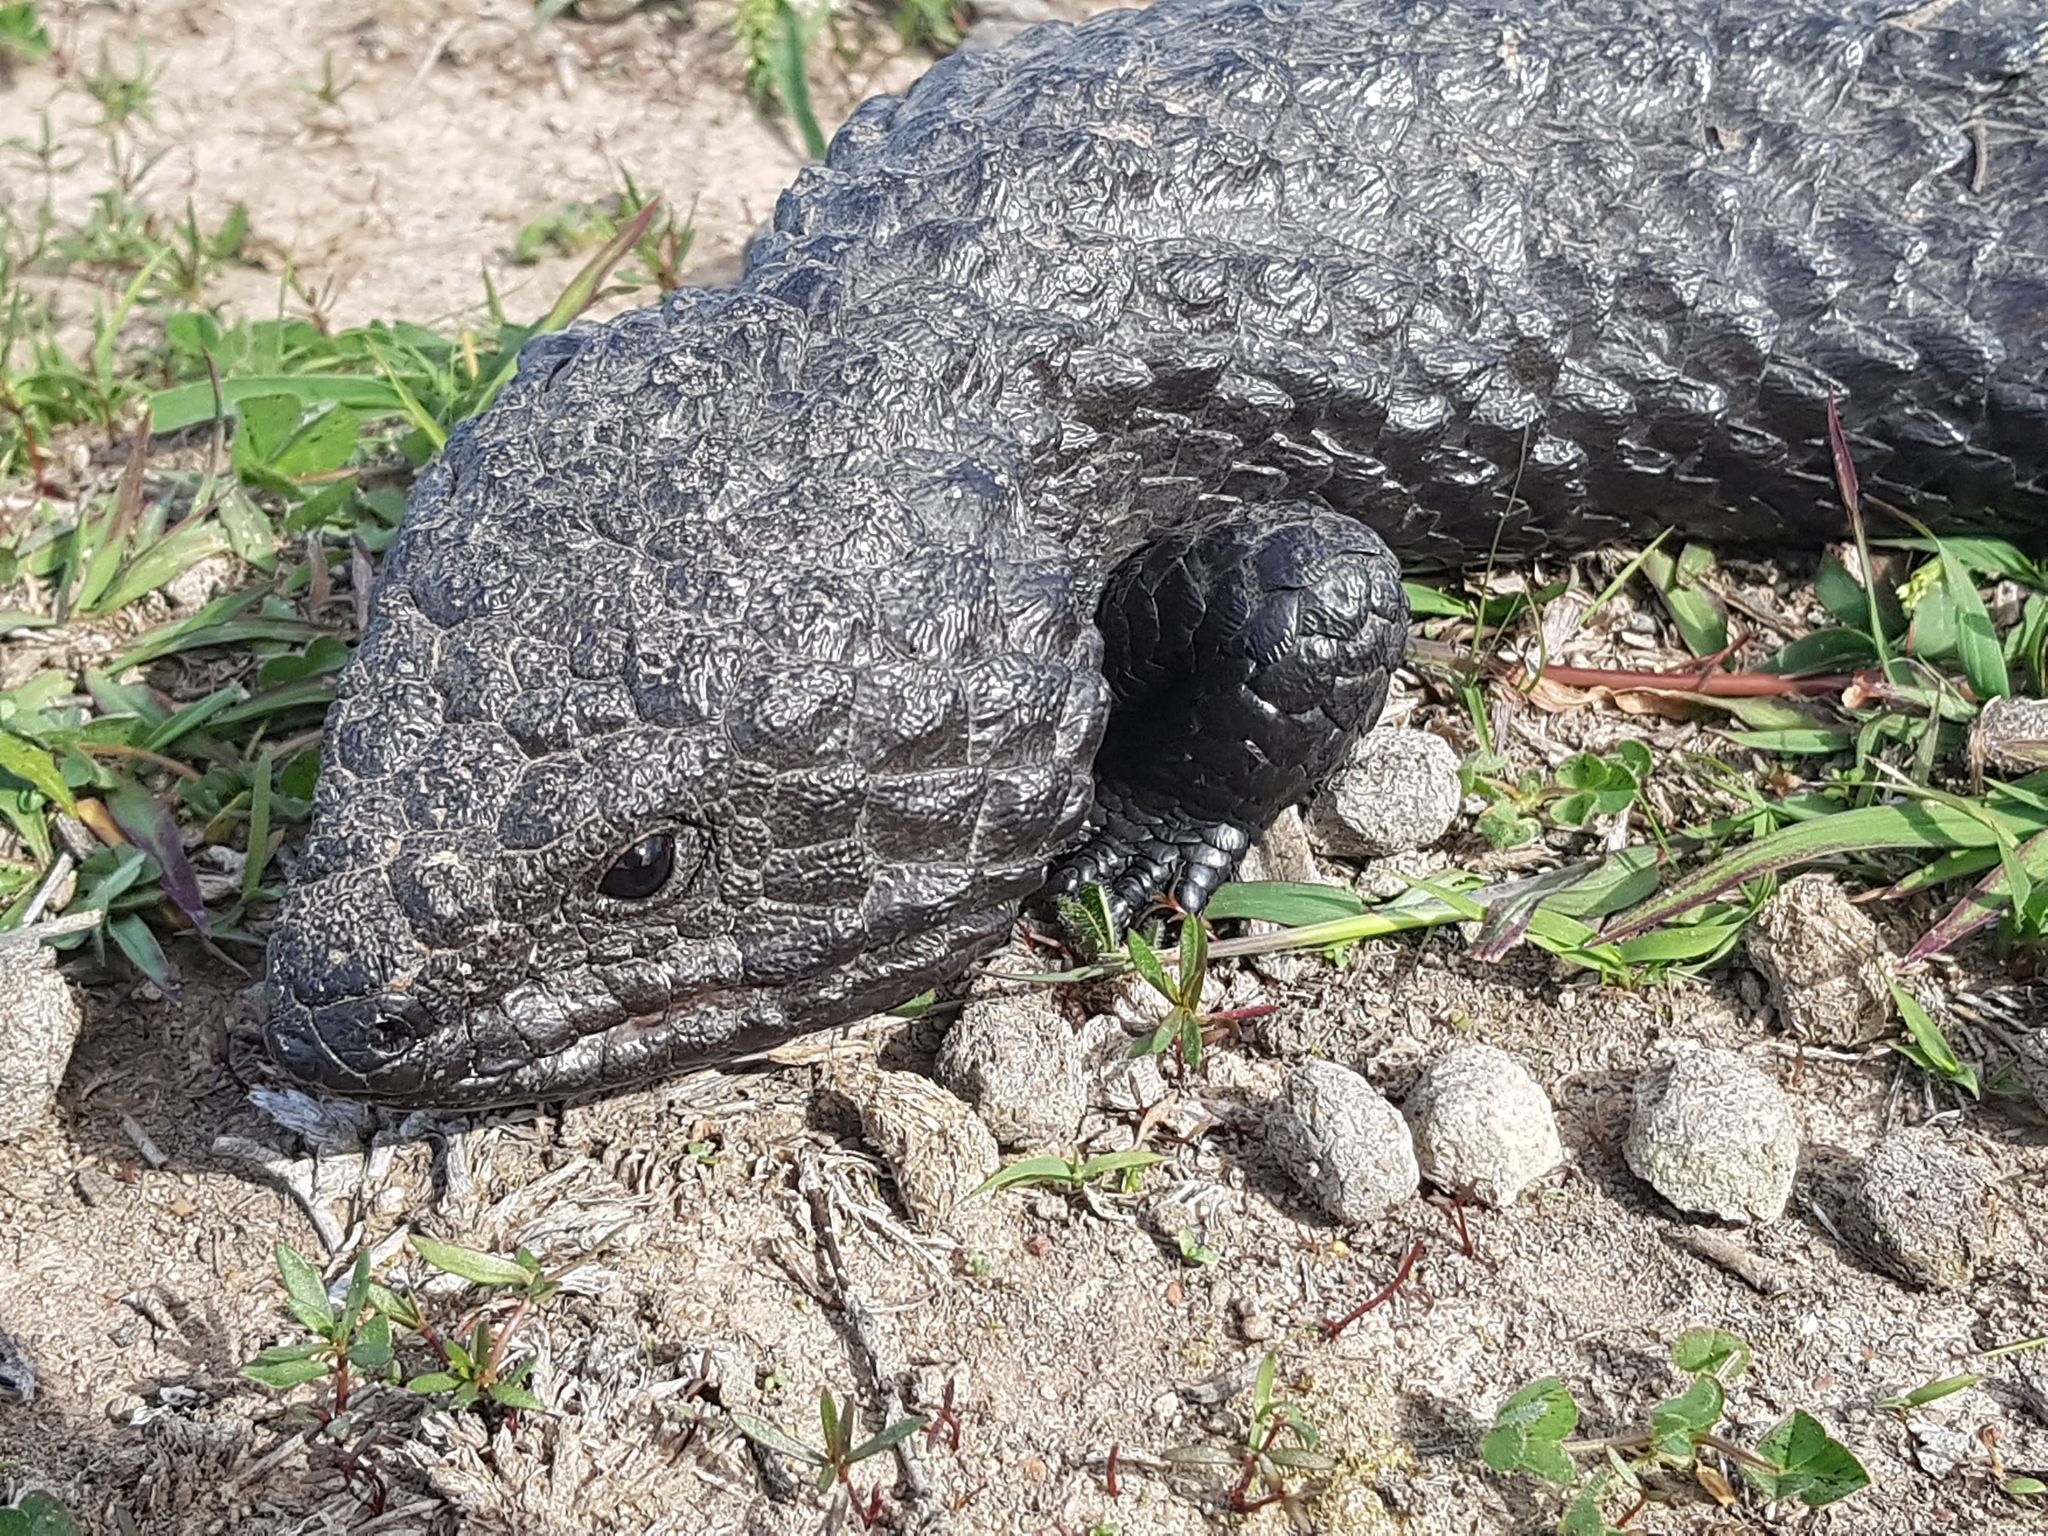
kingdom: Animalia
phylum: Chordata
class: Squamata
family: Scincidae
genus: Tiliqua
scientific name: Tiliqua rugosa
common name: Pinecone lizard
